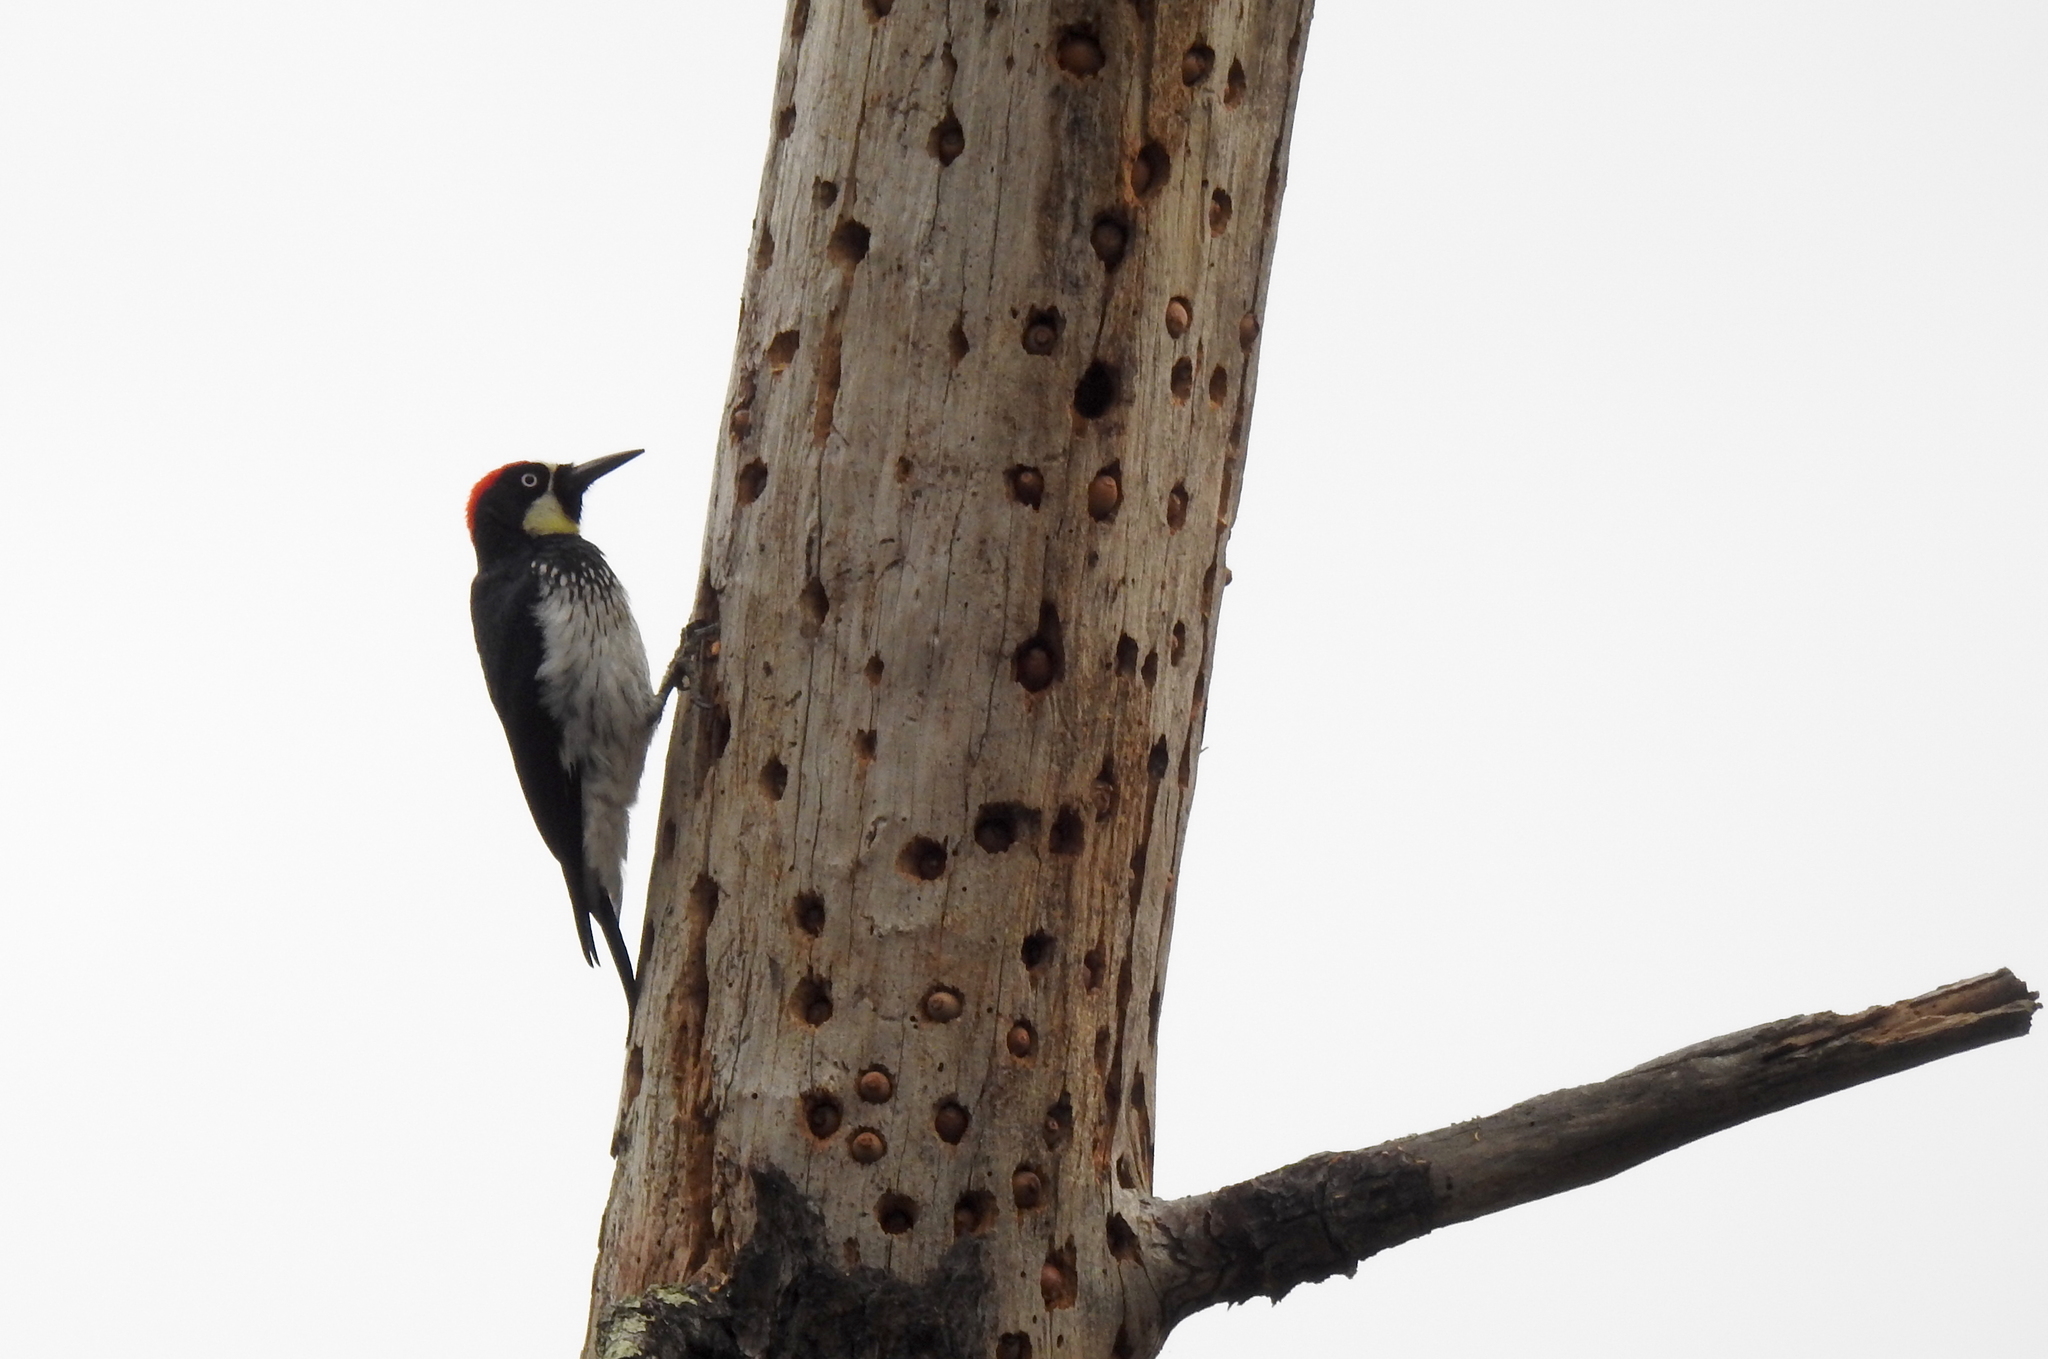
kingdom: Animalia
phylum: Chordata
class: Aves
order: Piciformes
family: Picidae
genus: Melanerpes
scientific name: Melanerpes formicivorus
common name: Acorn woodpecker
